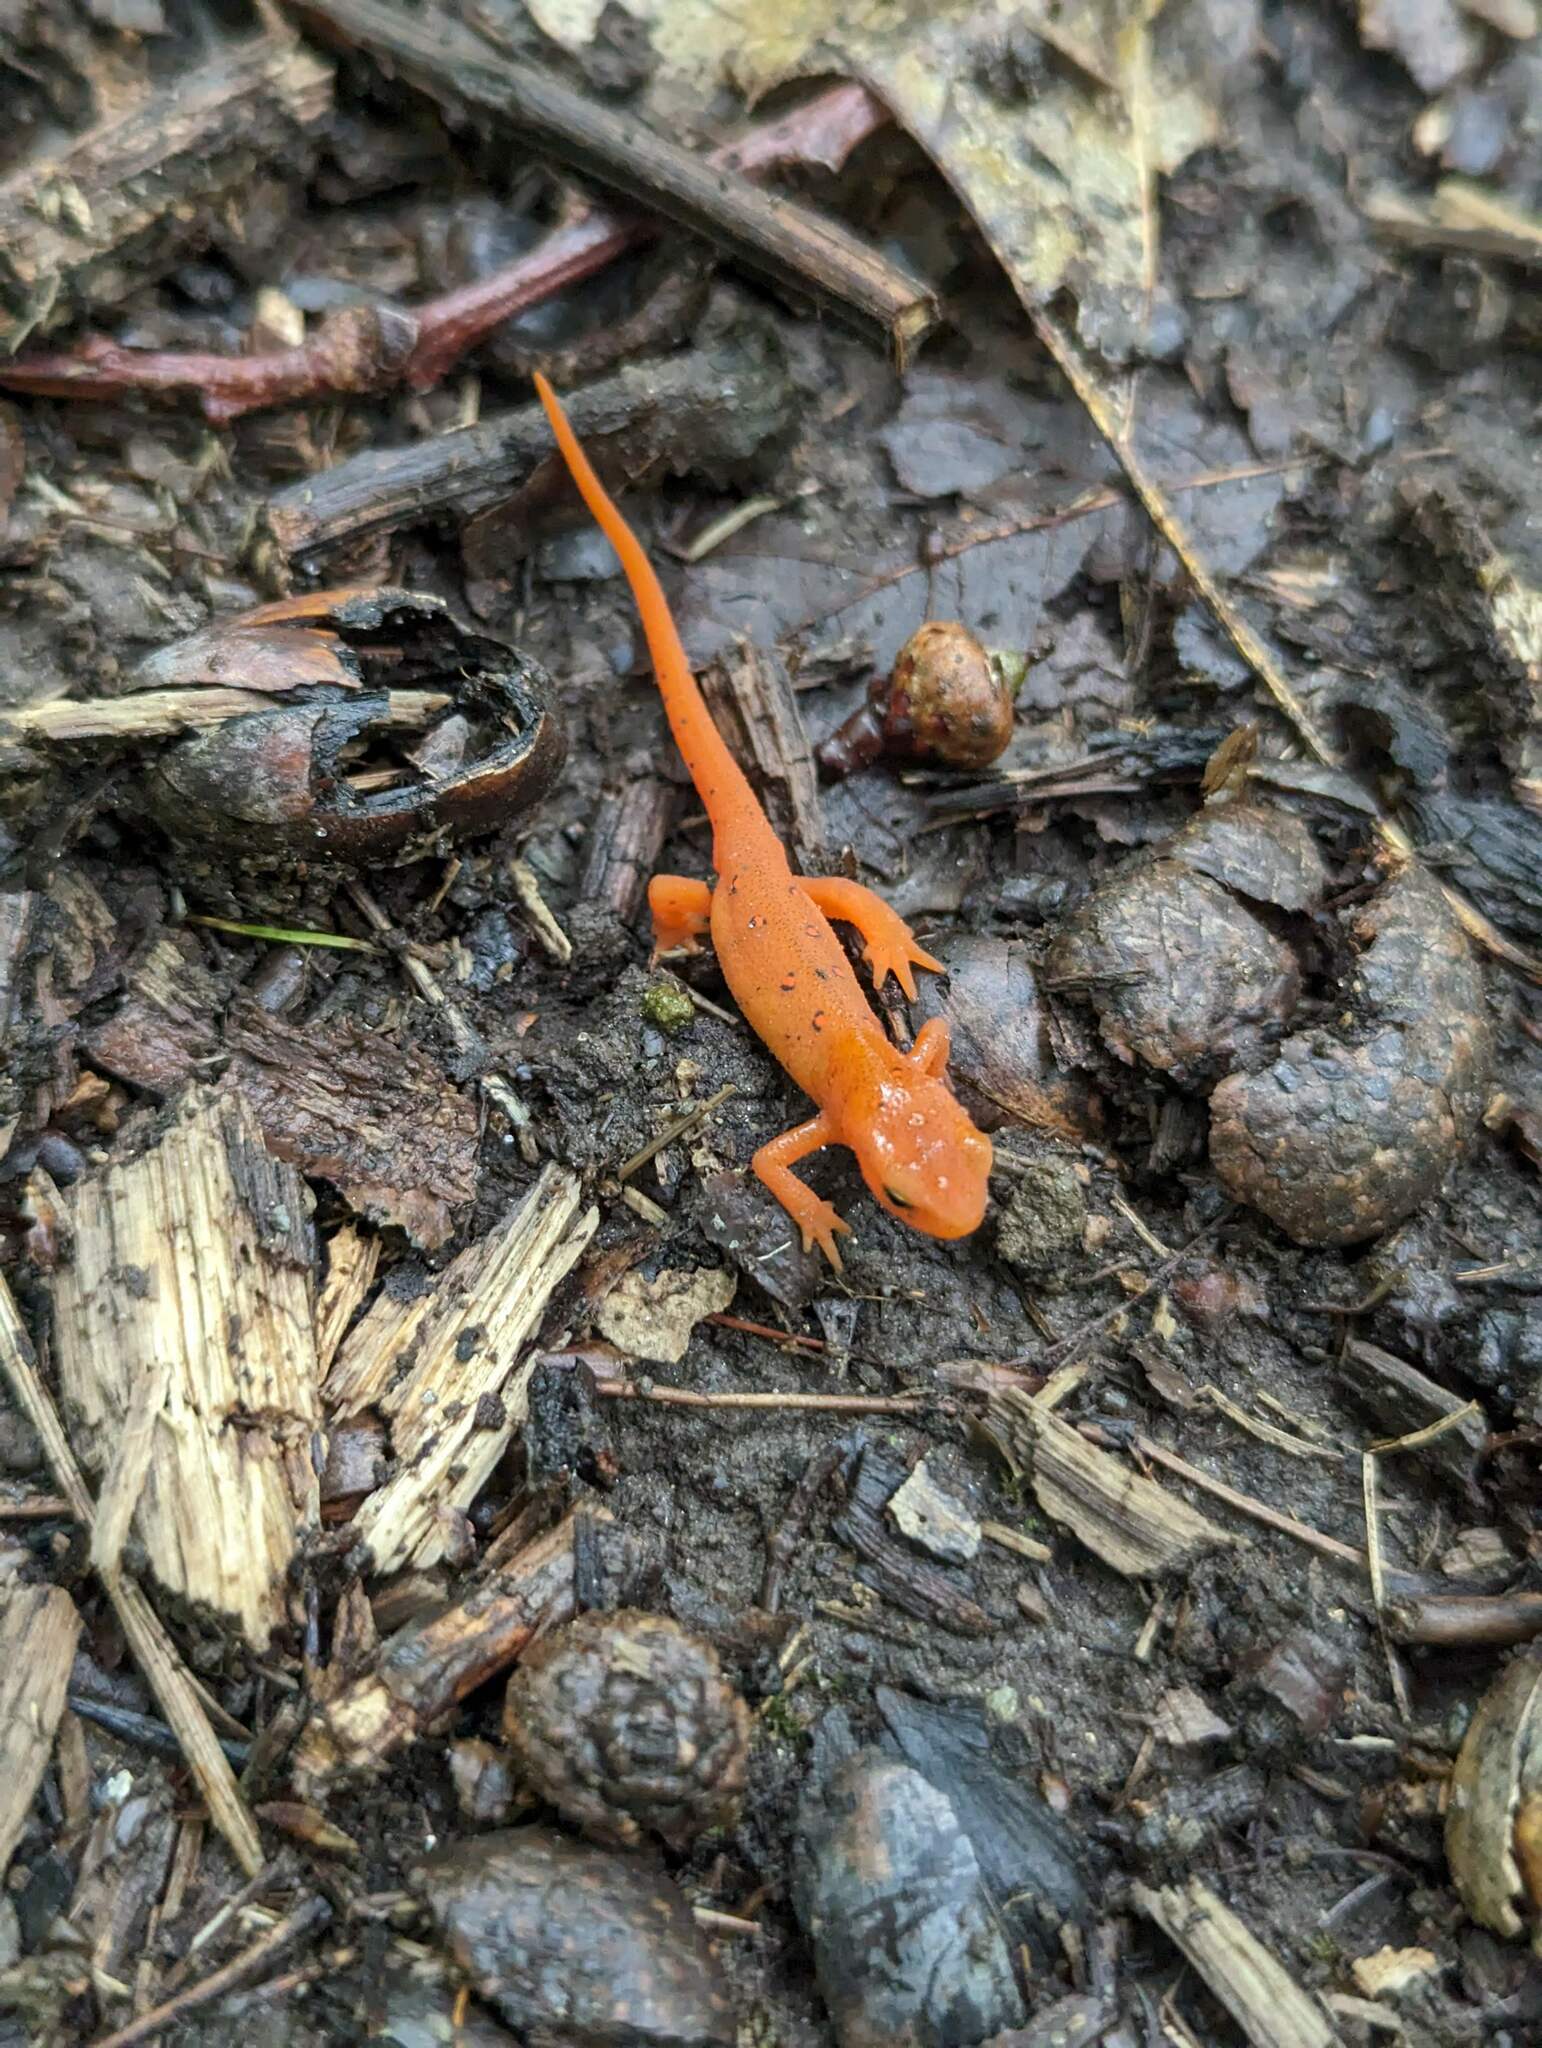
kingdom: Animalia
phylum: Chordata
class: Amphibia
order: Caudata
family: Salamandridae
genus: Notophthalmus
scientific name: Notophthalmus viridescens
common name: Eastern newt
